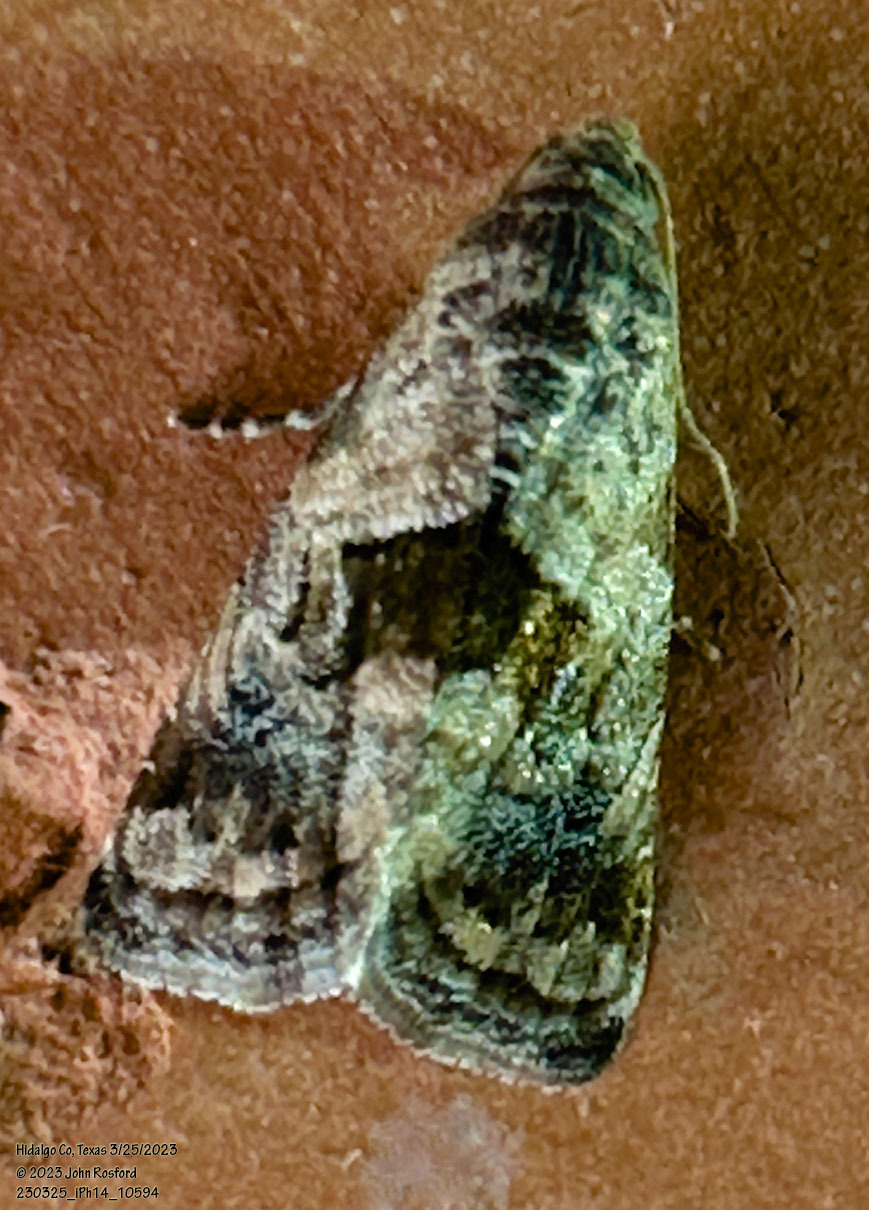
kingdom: Animalia
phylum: Arthropoda
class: Insecta
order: Lepidoptera
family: Noctuidae
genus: Tripudia
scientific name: Tripudia quadrifera
